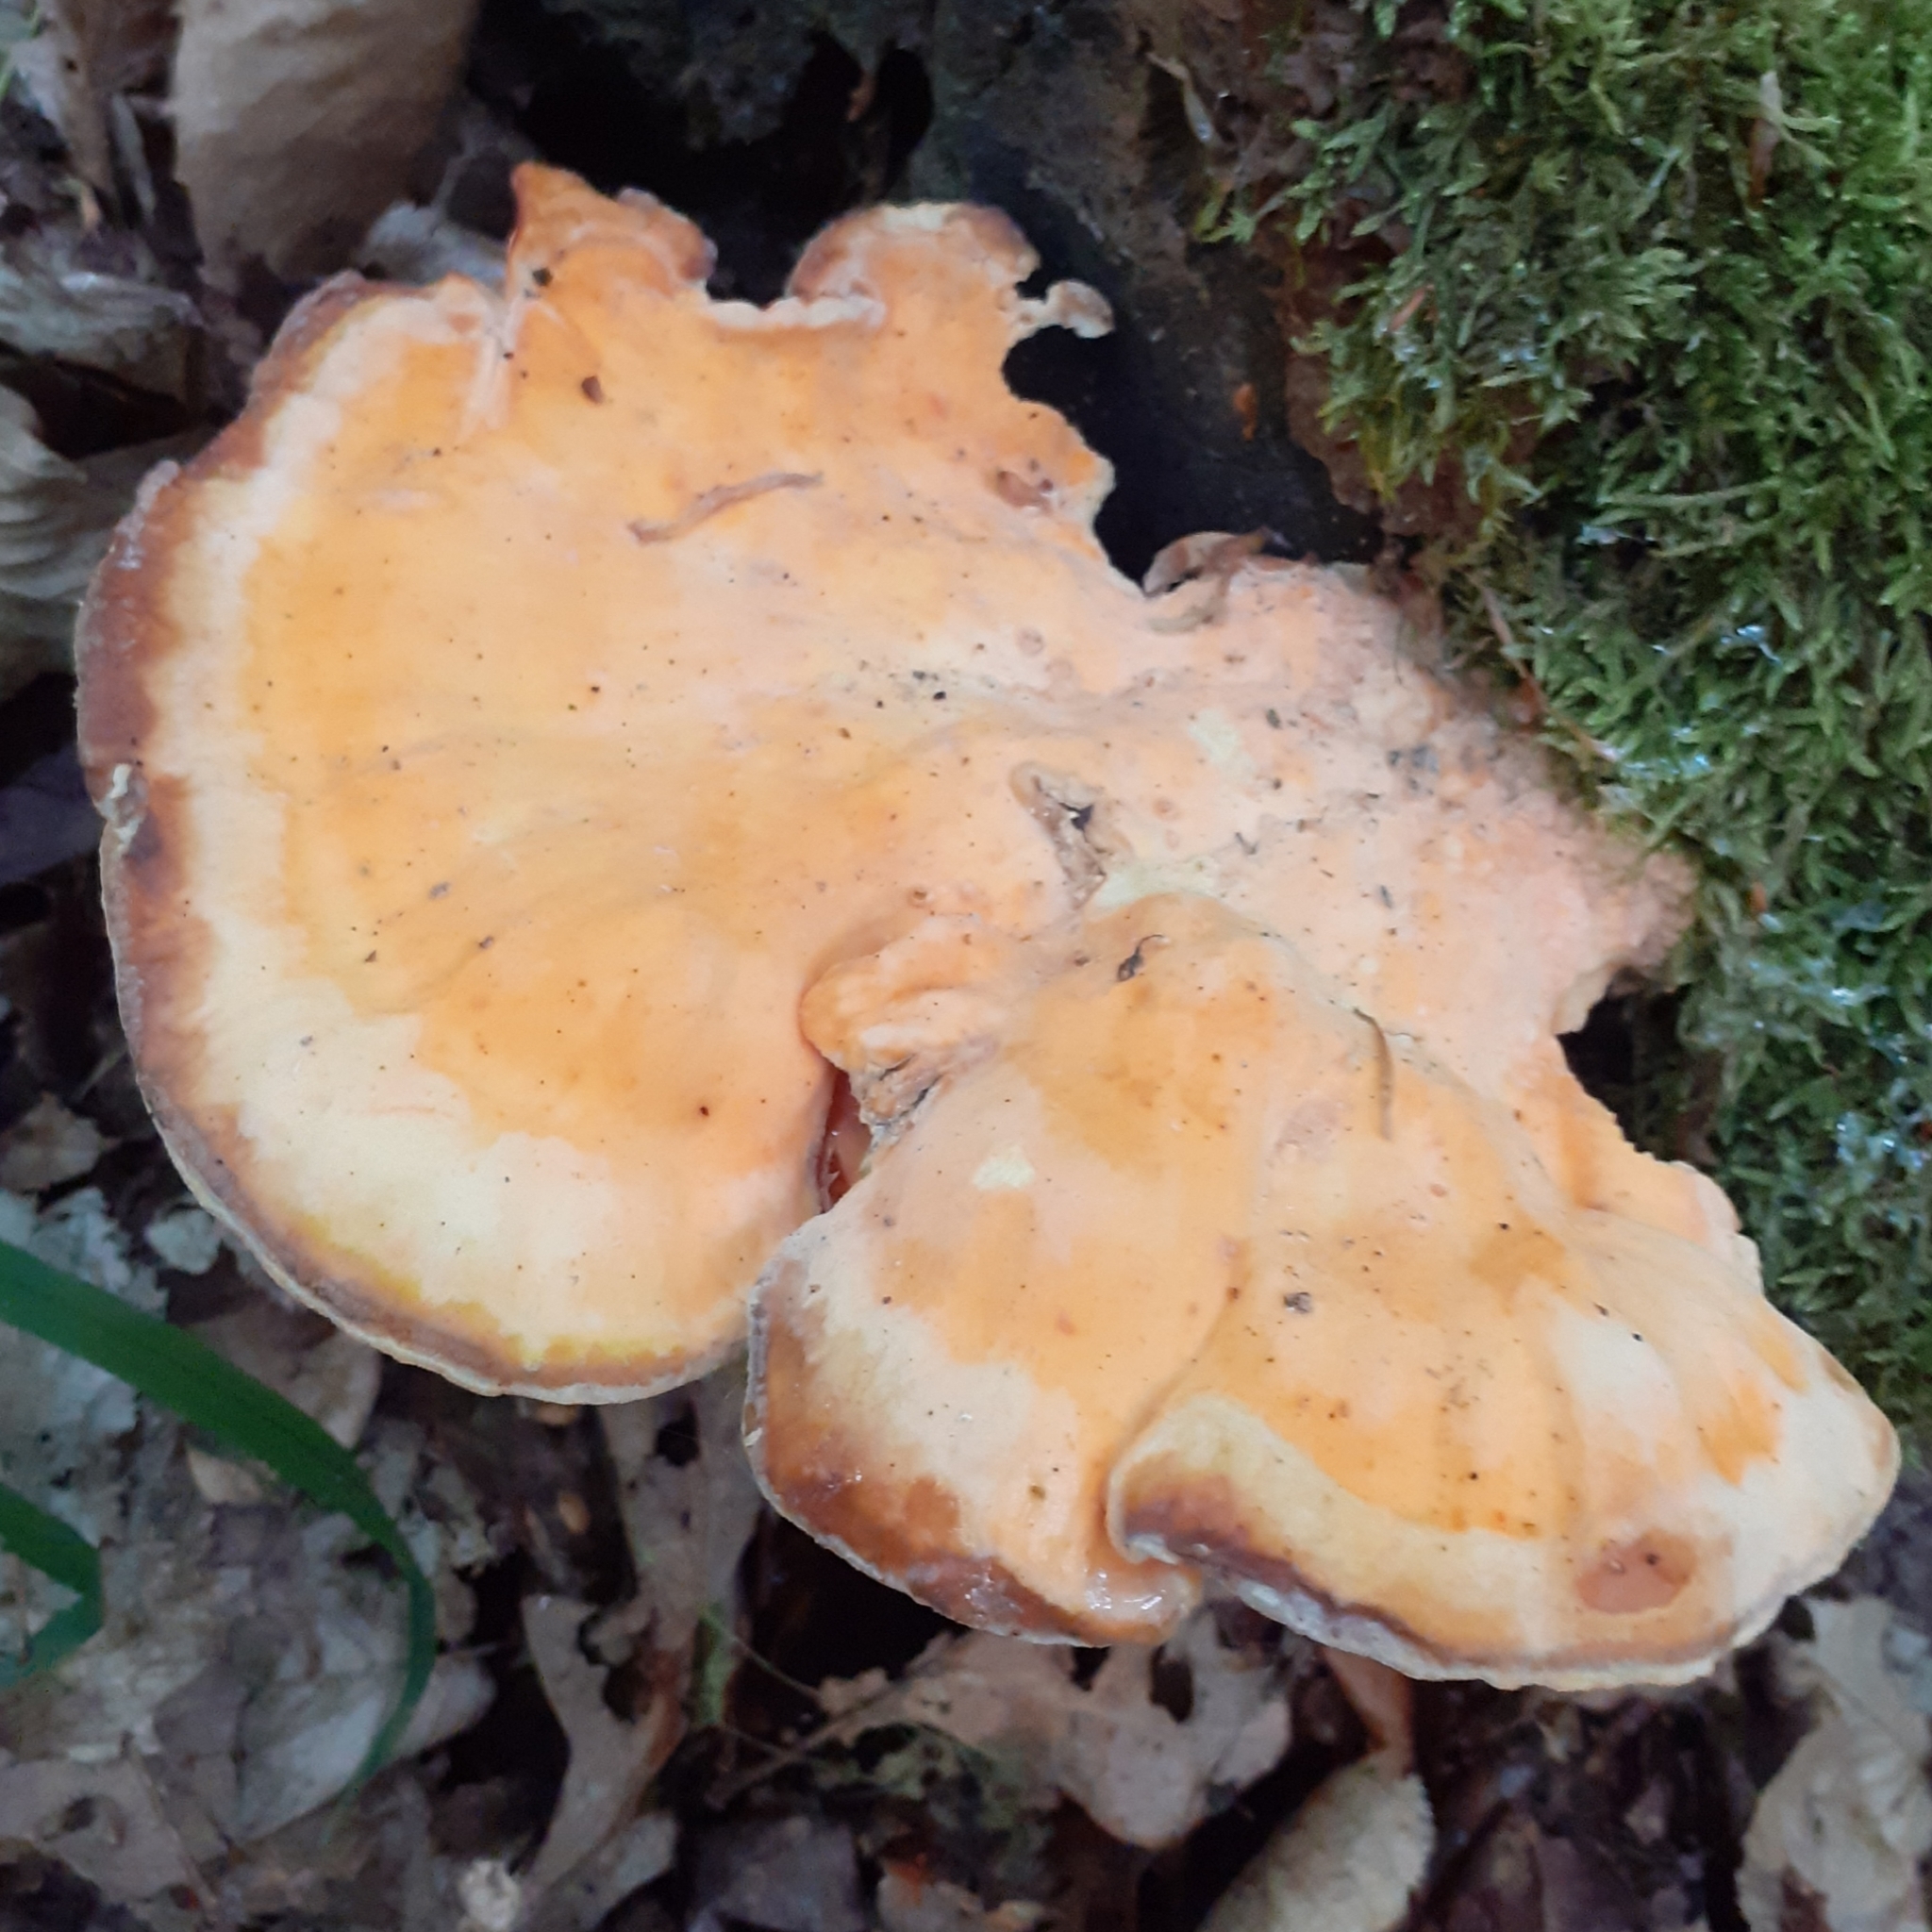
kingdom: Fungi
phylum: Basidiomycota
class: Agaricomycetes
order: Polyporales
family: Laetiporaceae
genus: Laetiporus
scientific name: Laetiporus sulphureus
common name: Chicken of the woods
